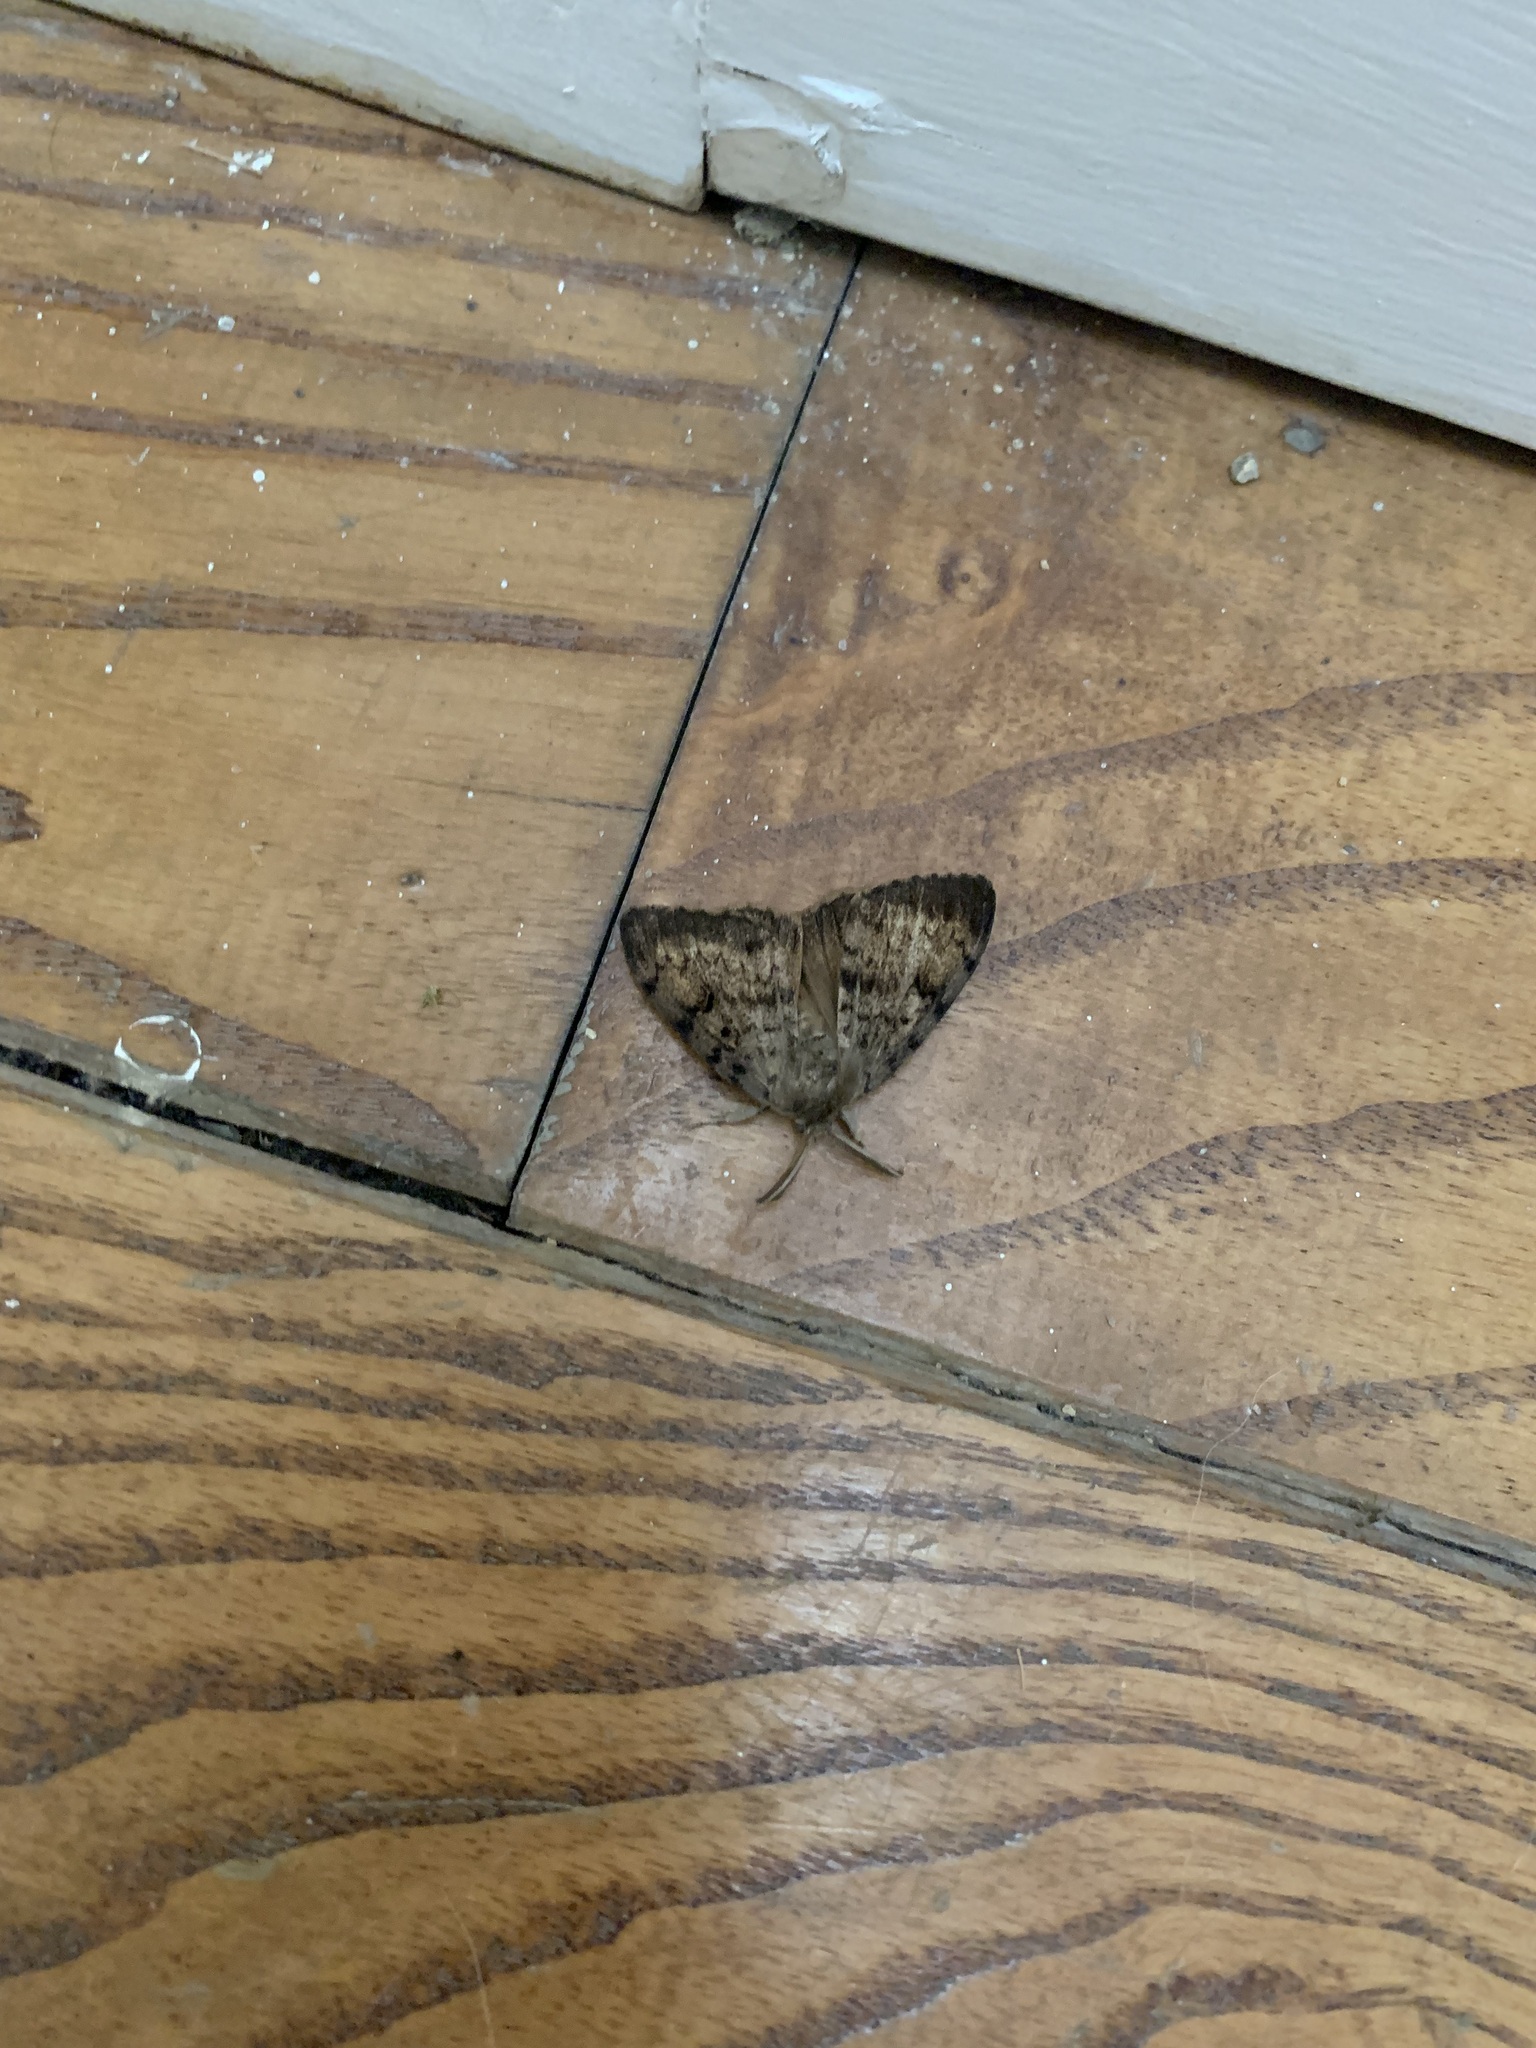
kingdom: Animalia
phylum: Arthropoda
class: Insecta
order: Lepidoptera
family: Erebidae
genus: Lymantria
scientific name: Lymantria dispar
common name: Gypsy moth
